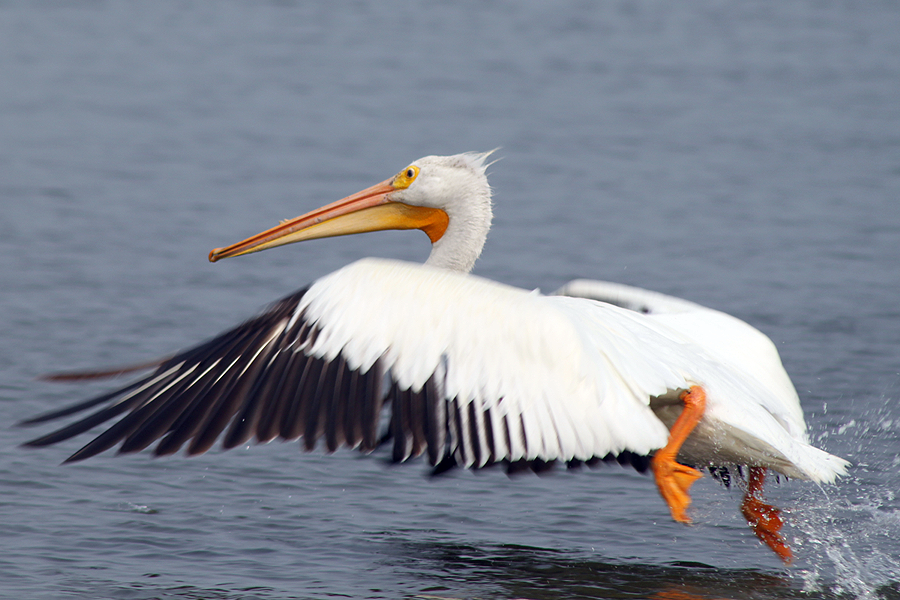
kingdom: Animalia
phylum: Chordata
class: Aves
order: Pelecaniformes
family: Pelecanidae
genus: Pelecanus
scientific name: Pelecanus erythrorhynchos
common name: American white pelican
